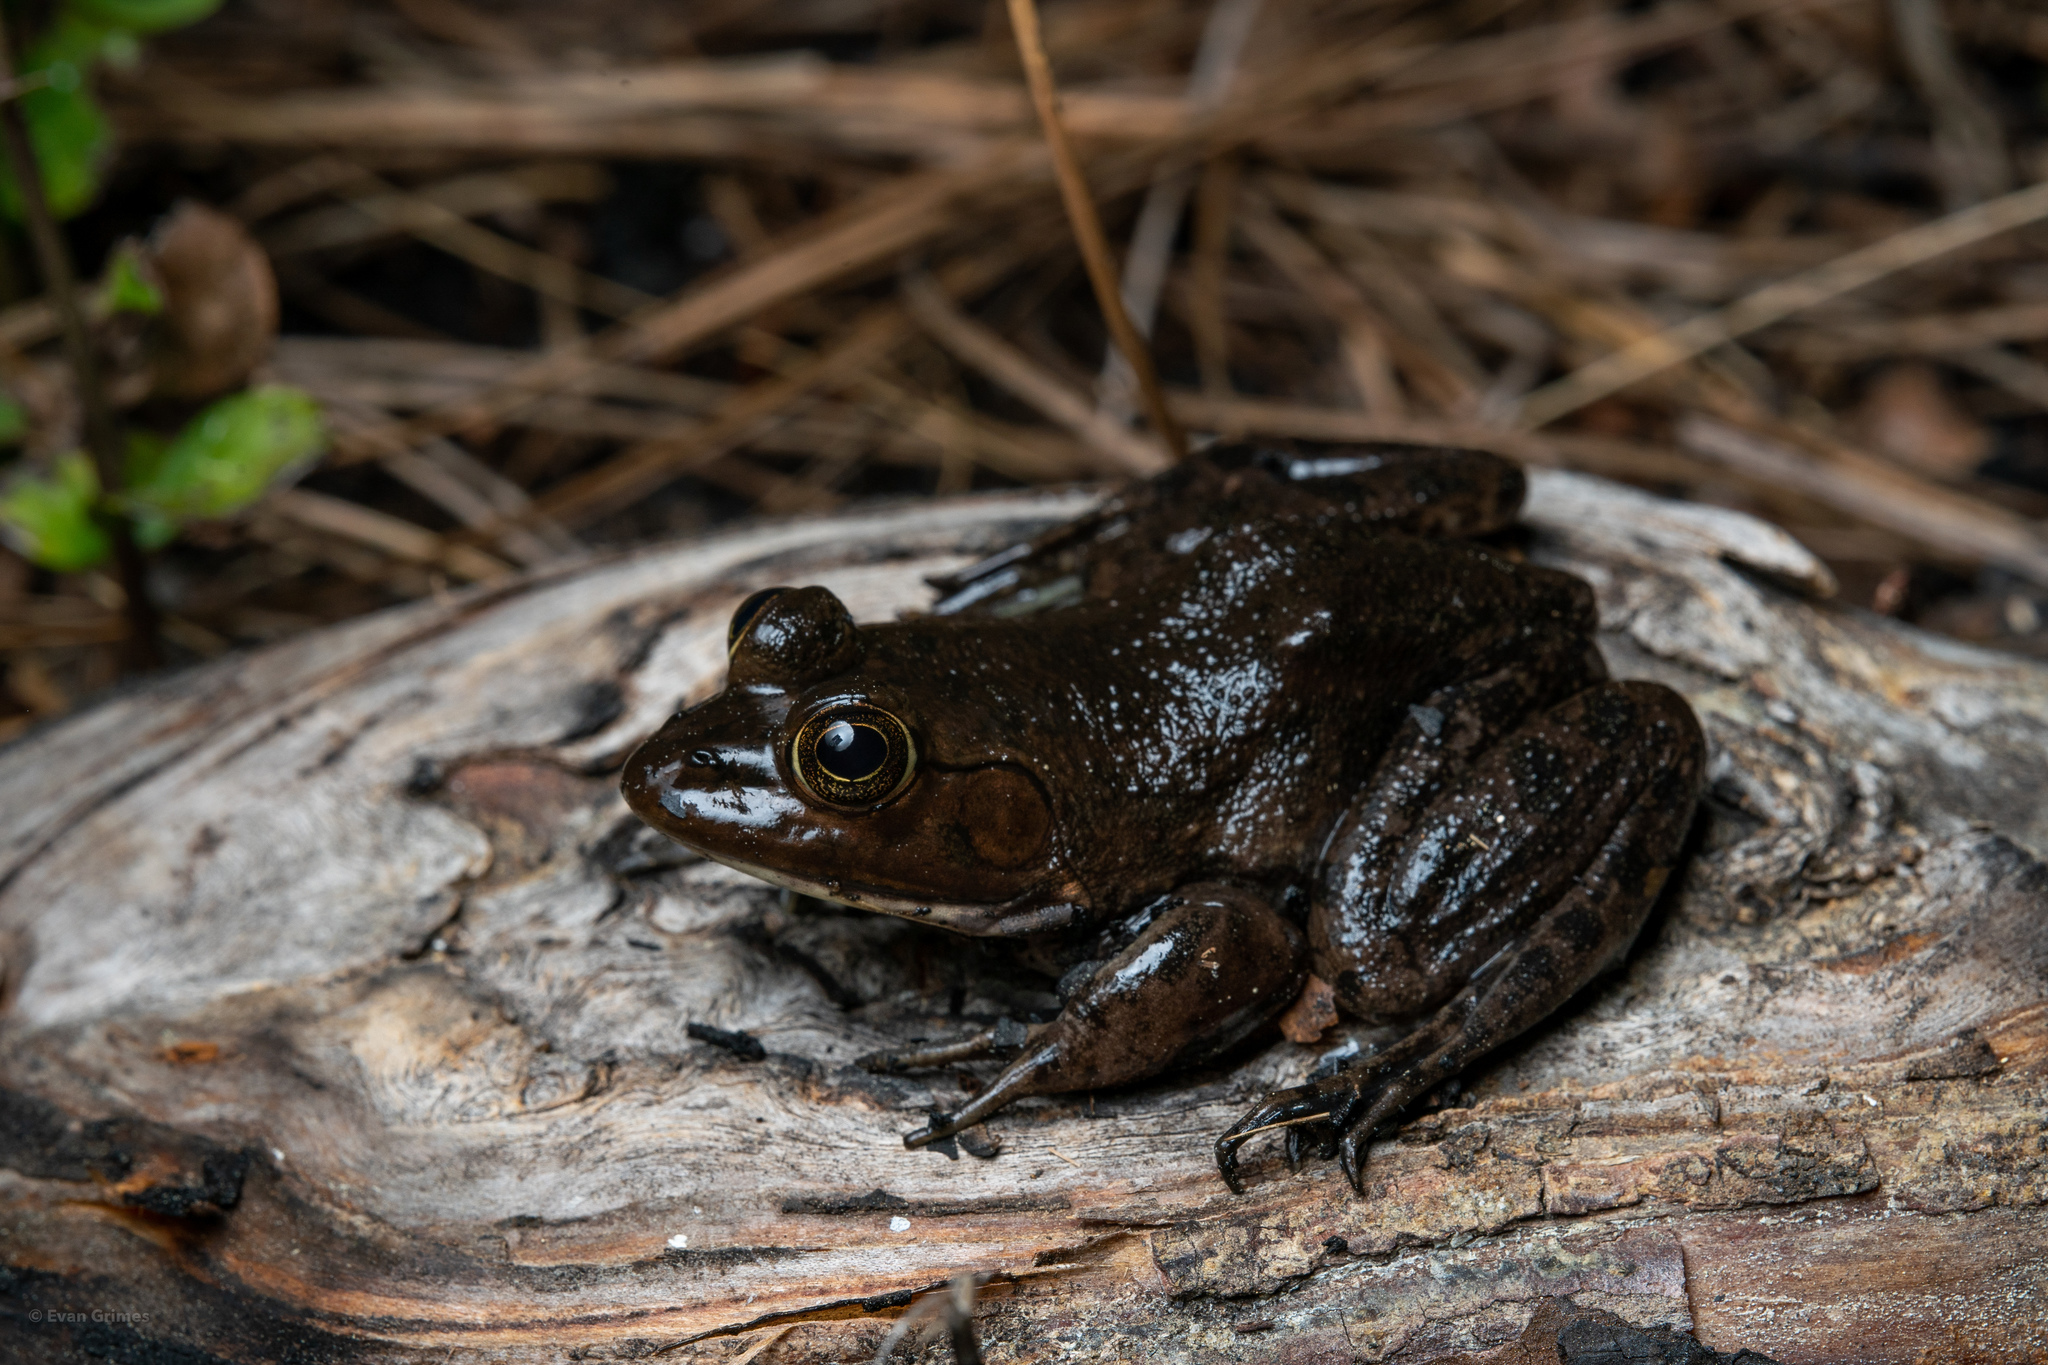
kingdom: Animalia
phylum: Chordata
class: Amphibia
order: Anura
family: Ranidae
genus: Lithobates
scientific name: Lithobates grylio
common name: Pig frog
